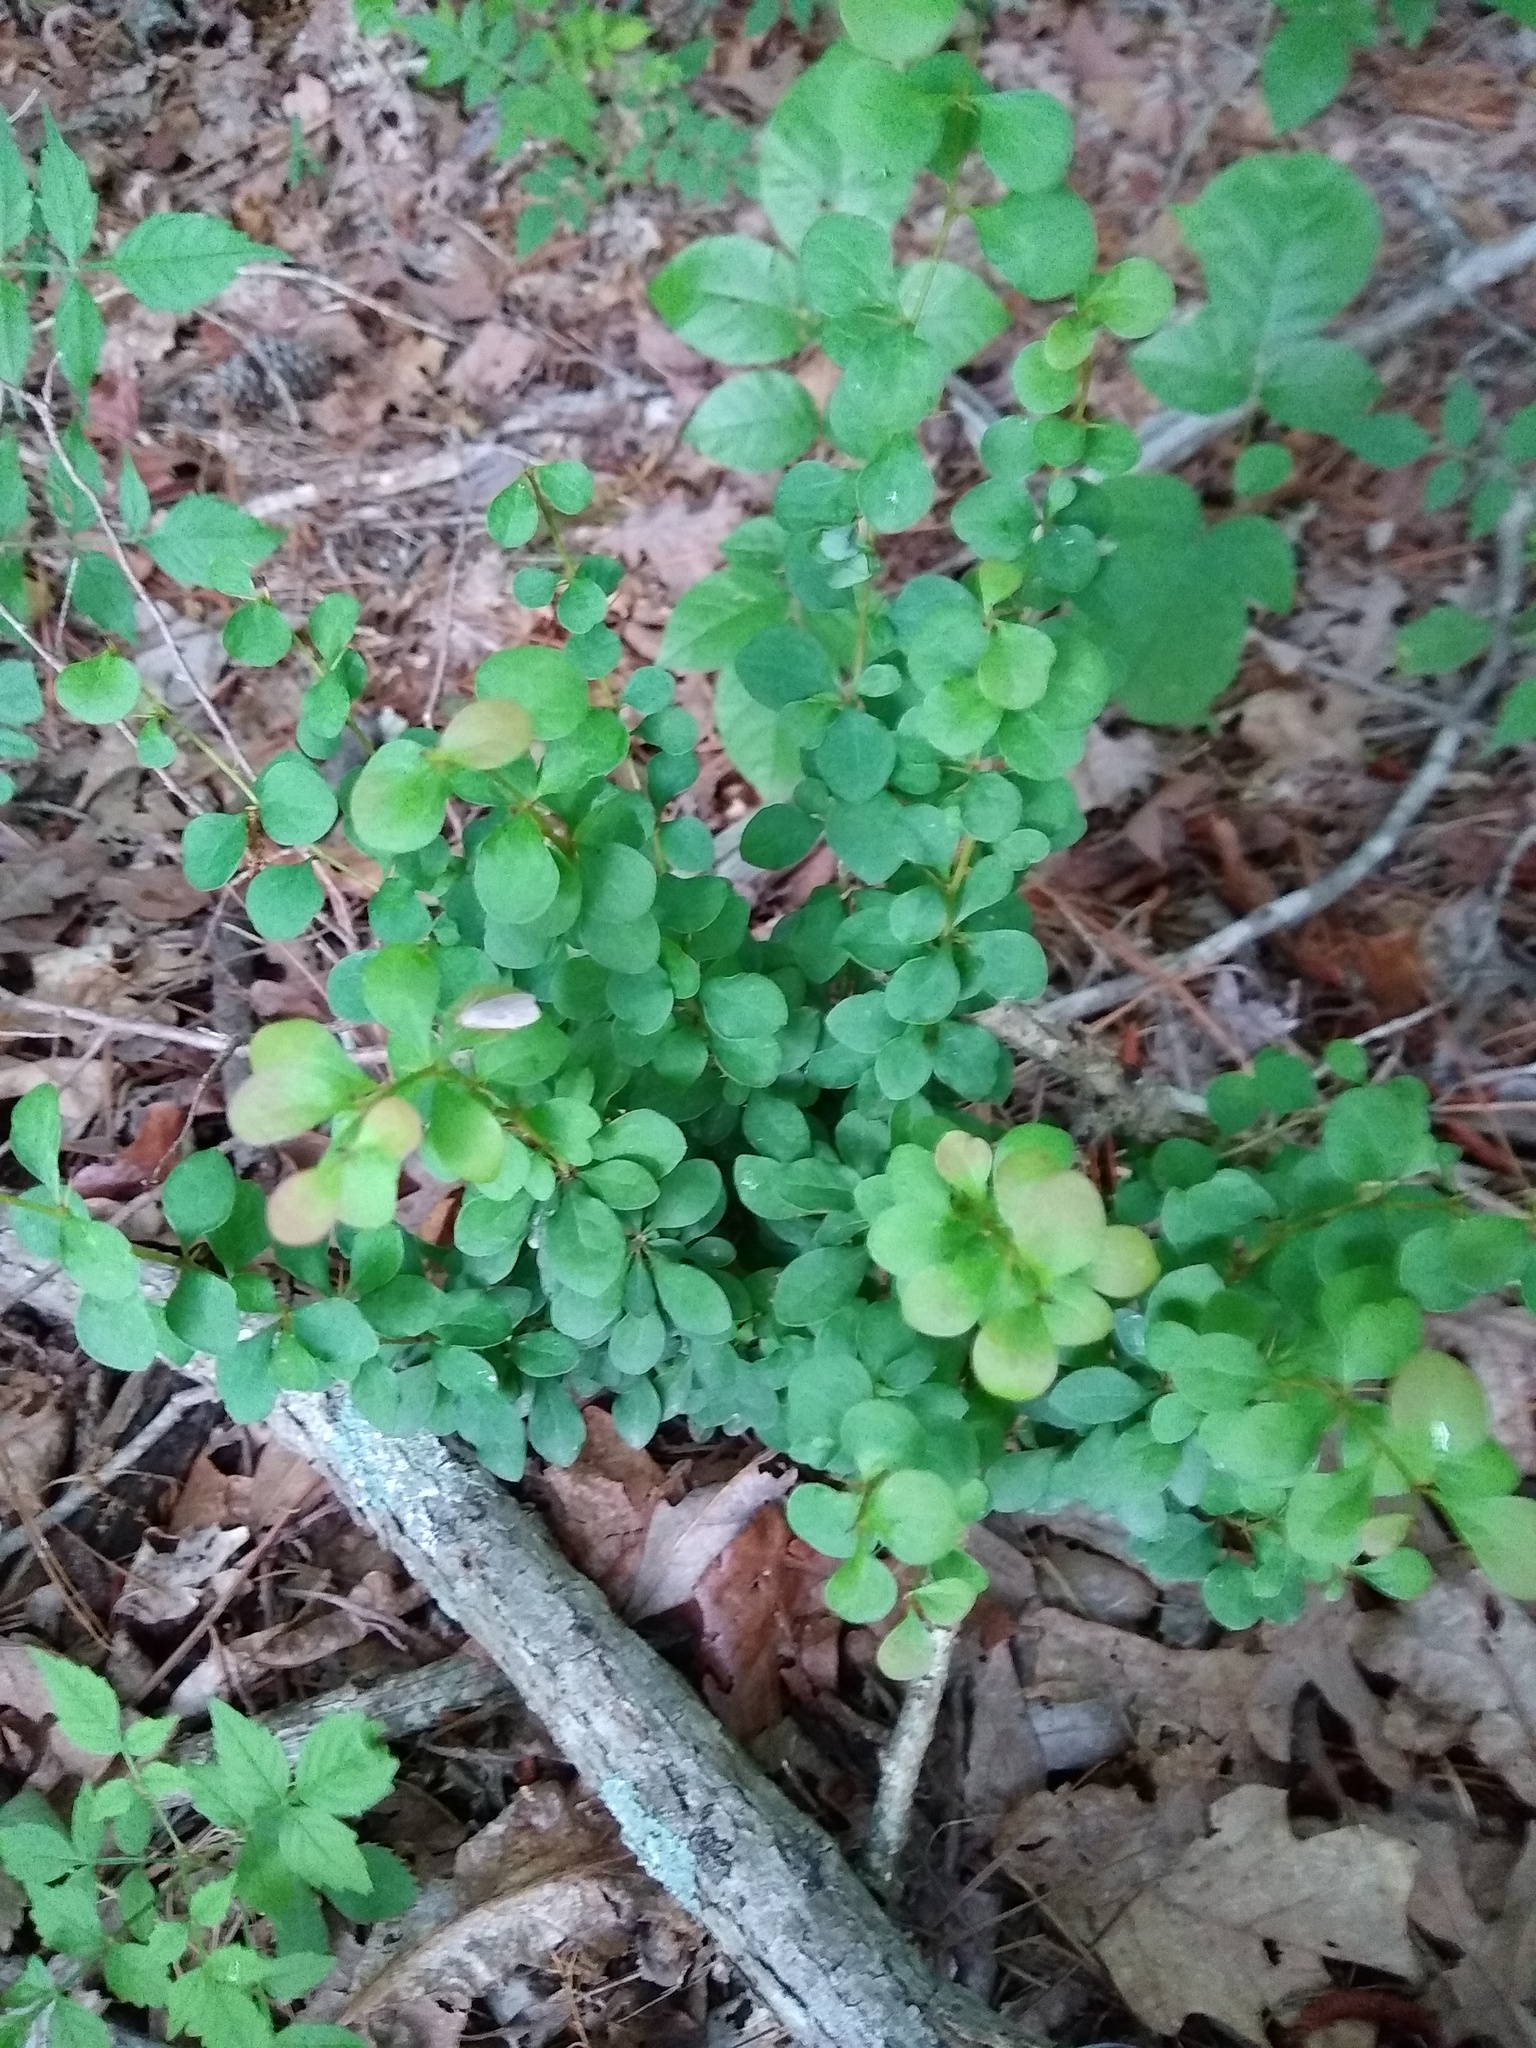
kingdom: Plantae
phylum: Tracheophyta
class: Magnoliopsida
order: Ranunculales
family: Berberidaceae
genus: Berberis
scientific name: Berberis thunbergii
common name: Japanese barberry
